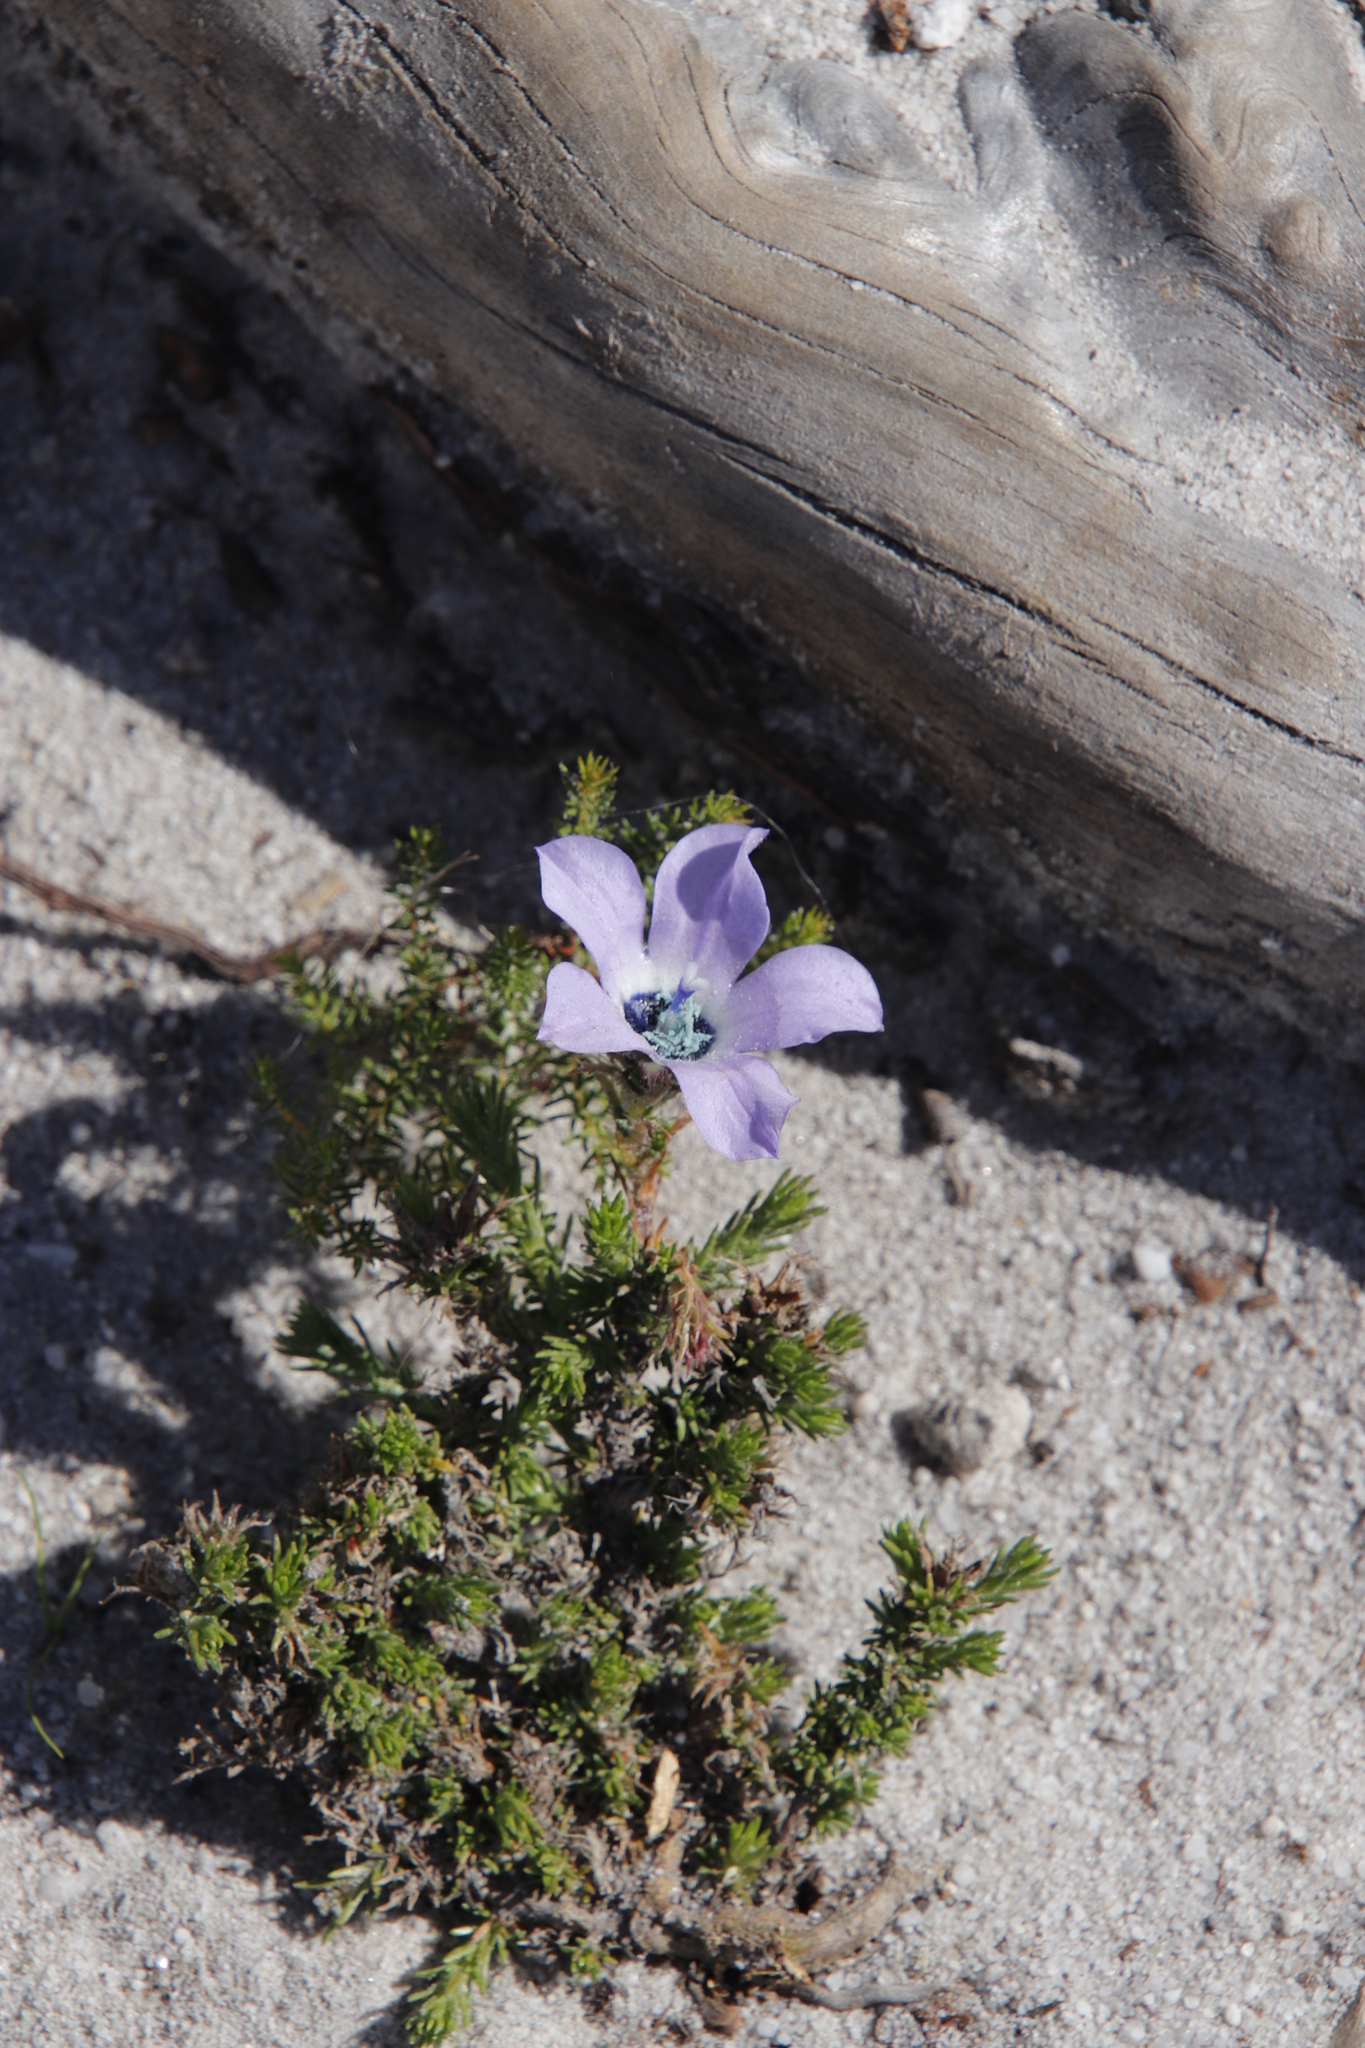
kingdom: Plantae
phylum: Tracheophyta
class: Magnoliopsida
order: Asterales
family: Campanulaceae
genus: Roella
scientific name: Roella triflora
